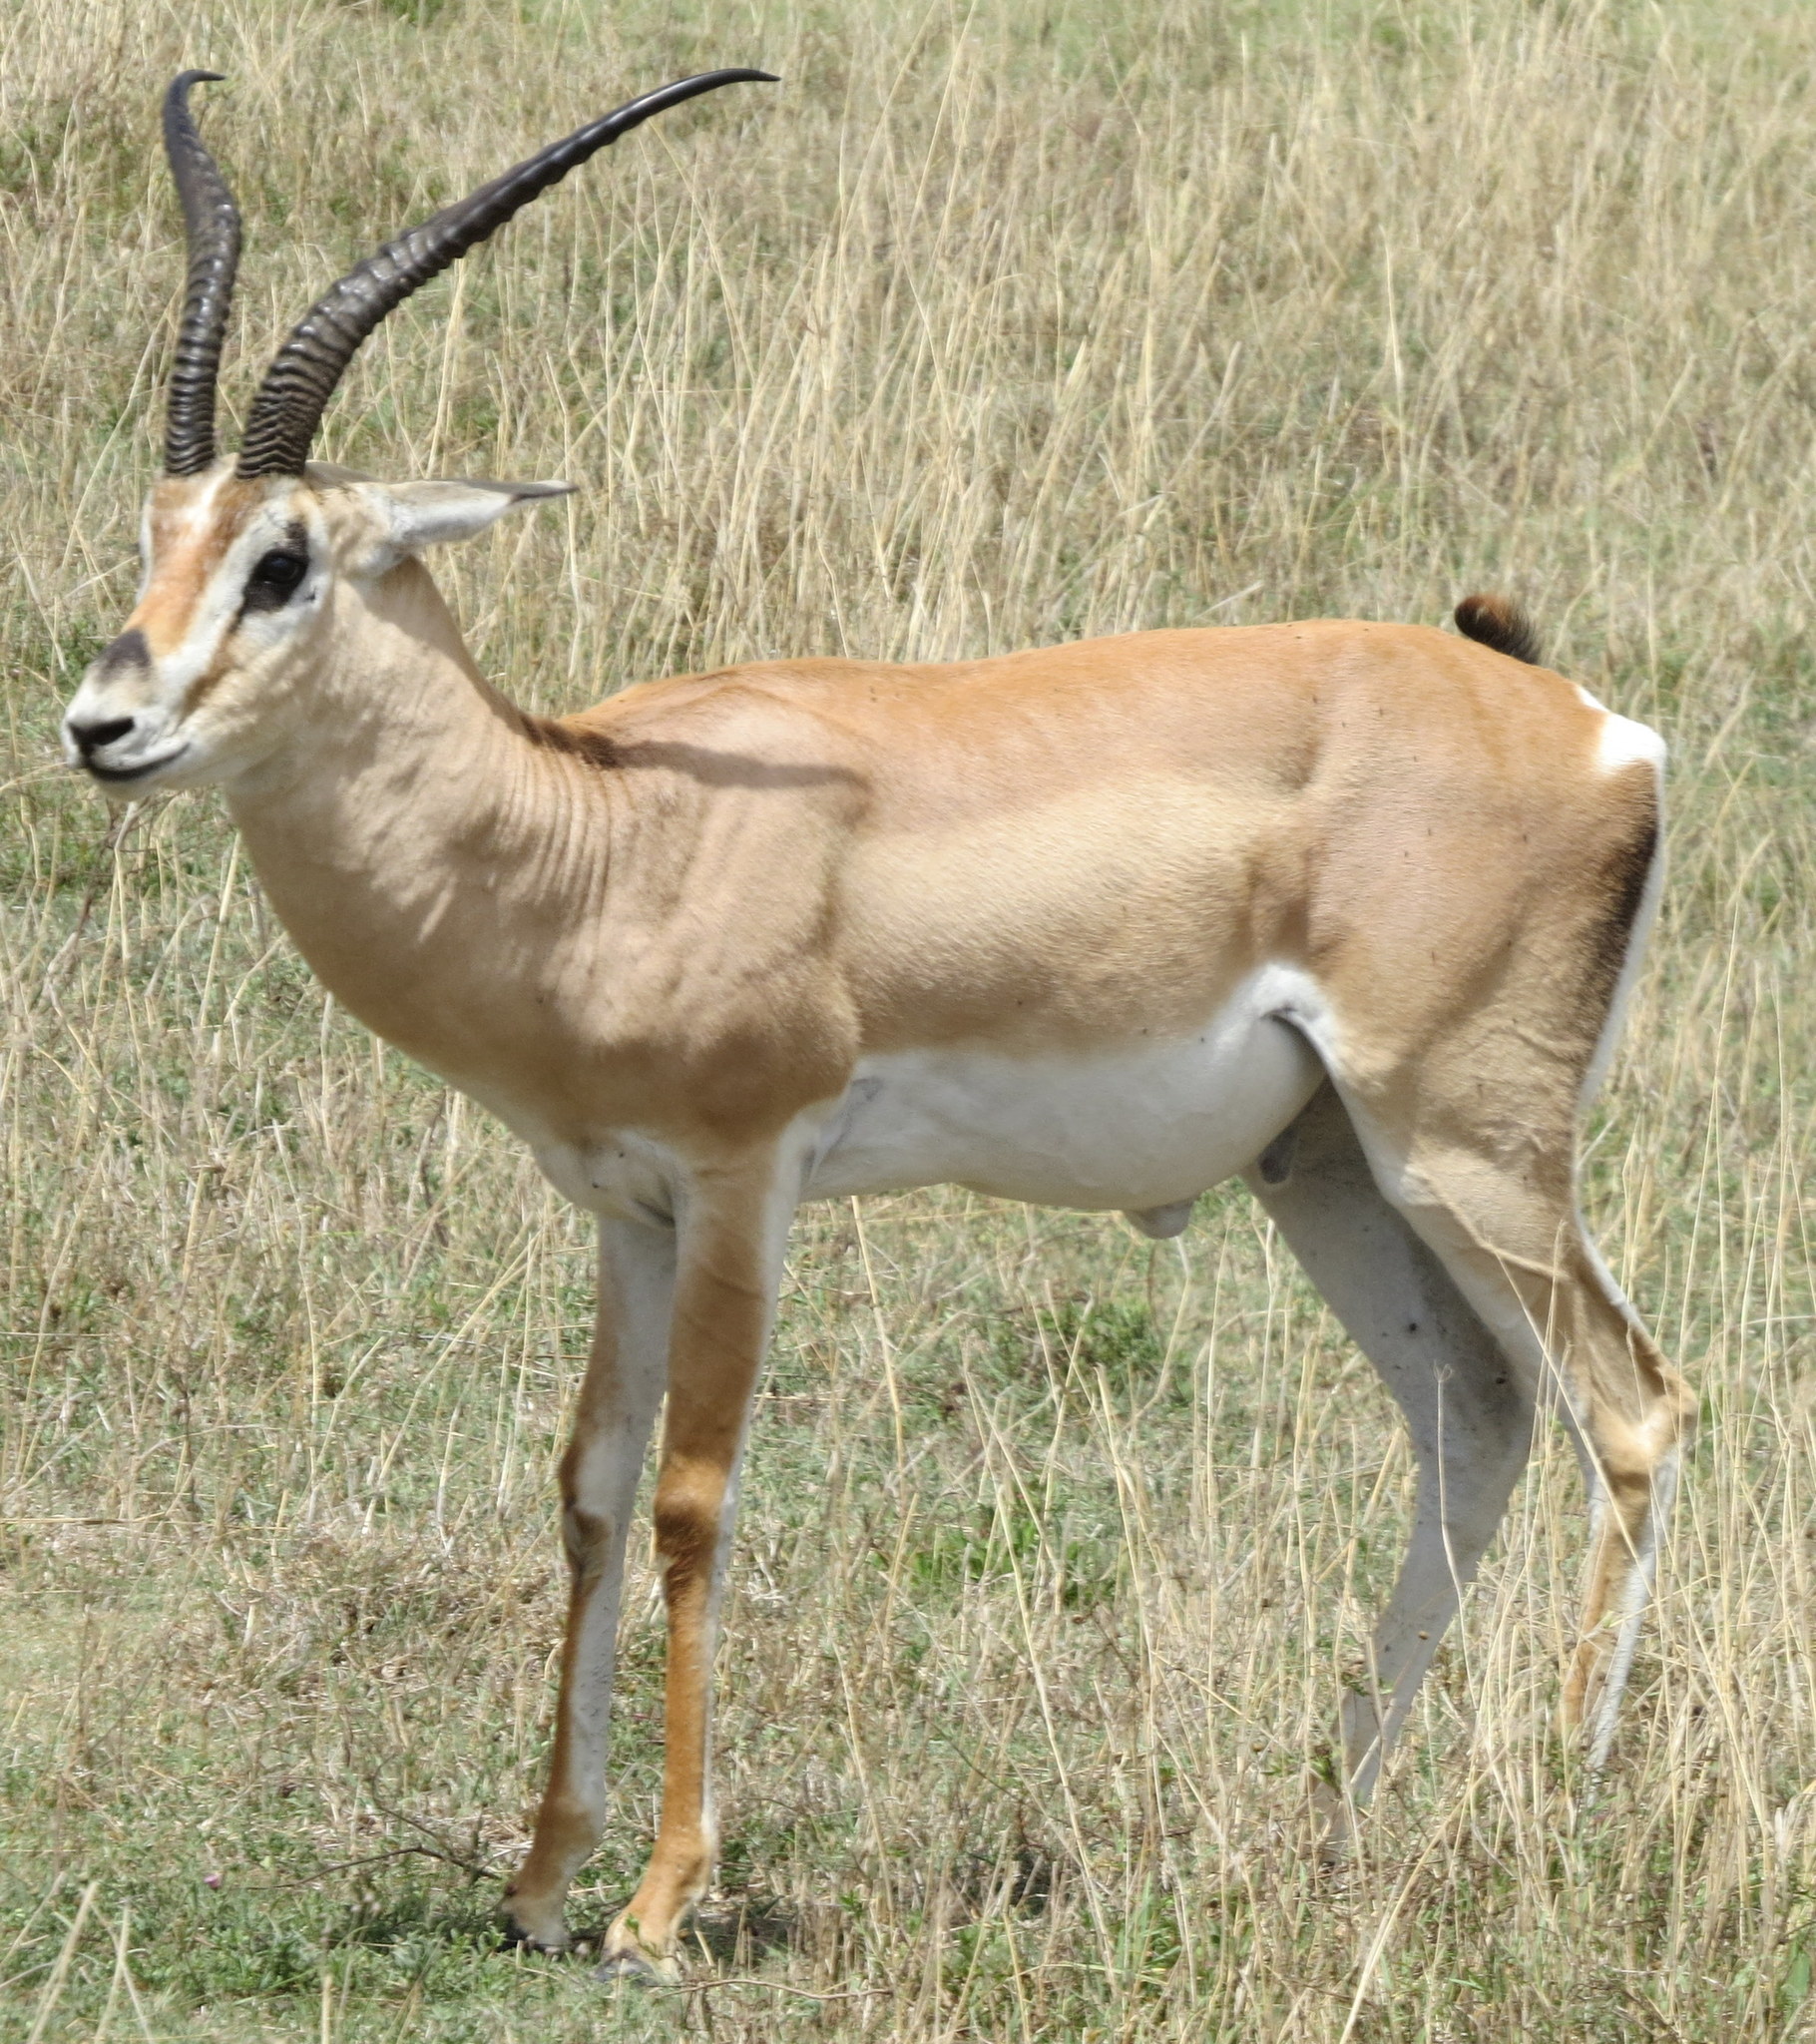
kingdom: Animalia
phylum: Chordata
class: Mammalia
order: Artiodactyla
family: Bovidae
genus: Nanger
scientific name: Nanger granti
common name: Grant's gazelle
